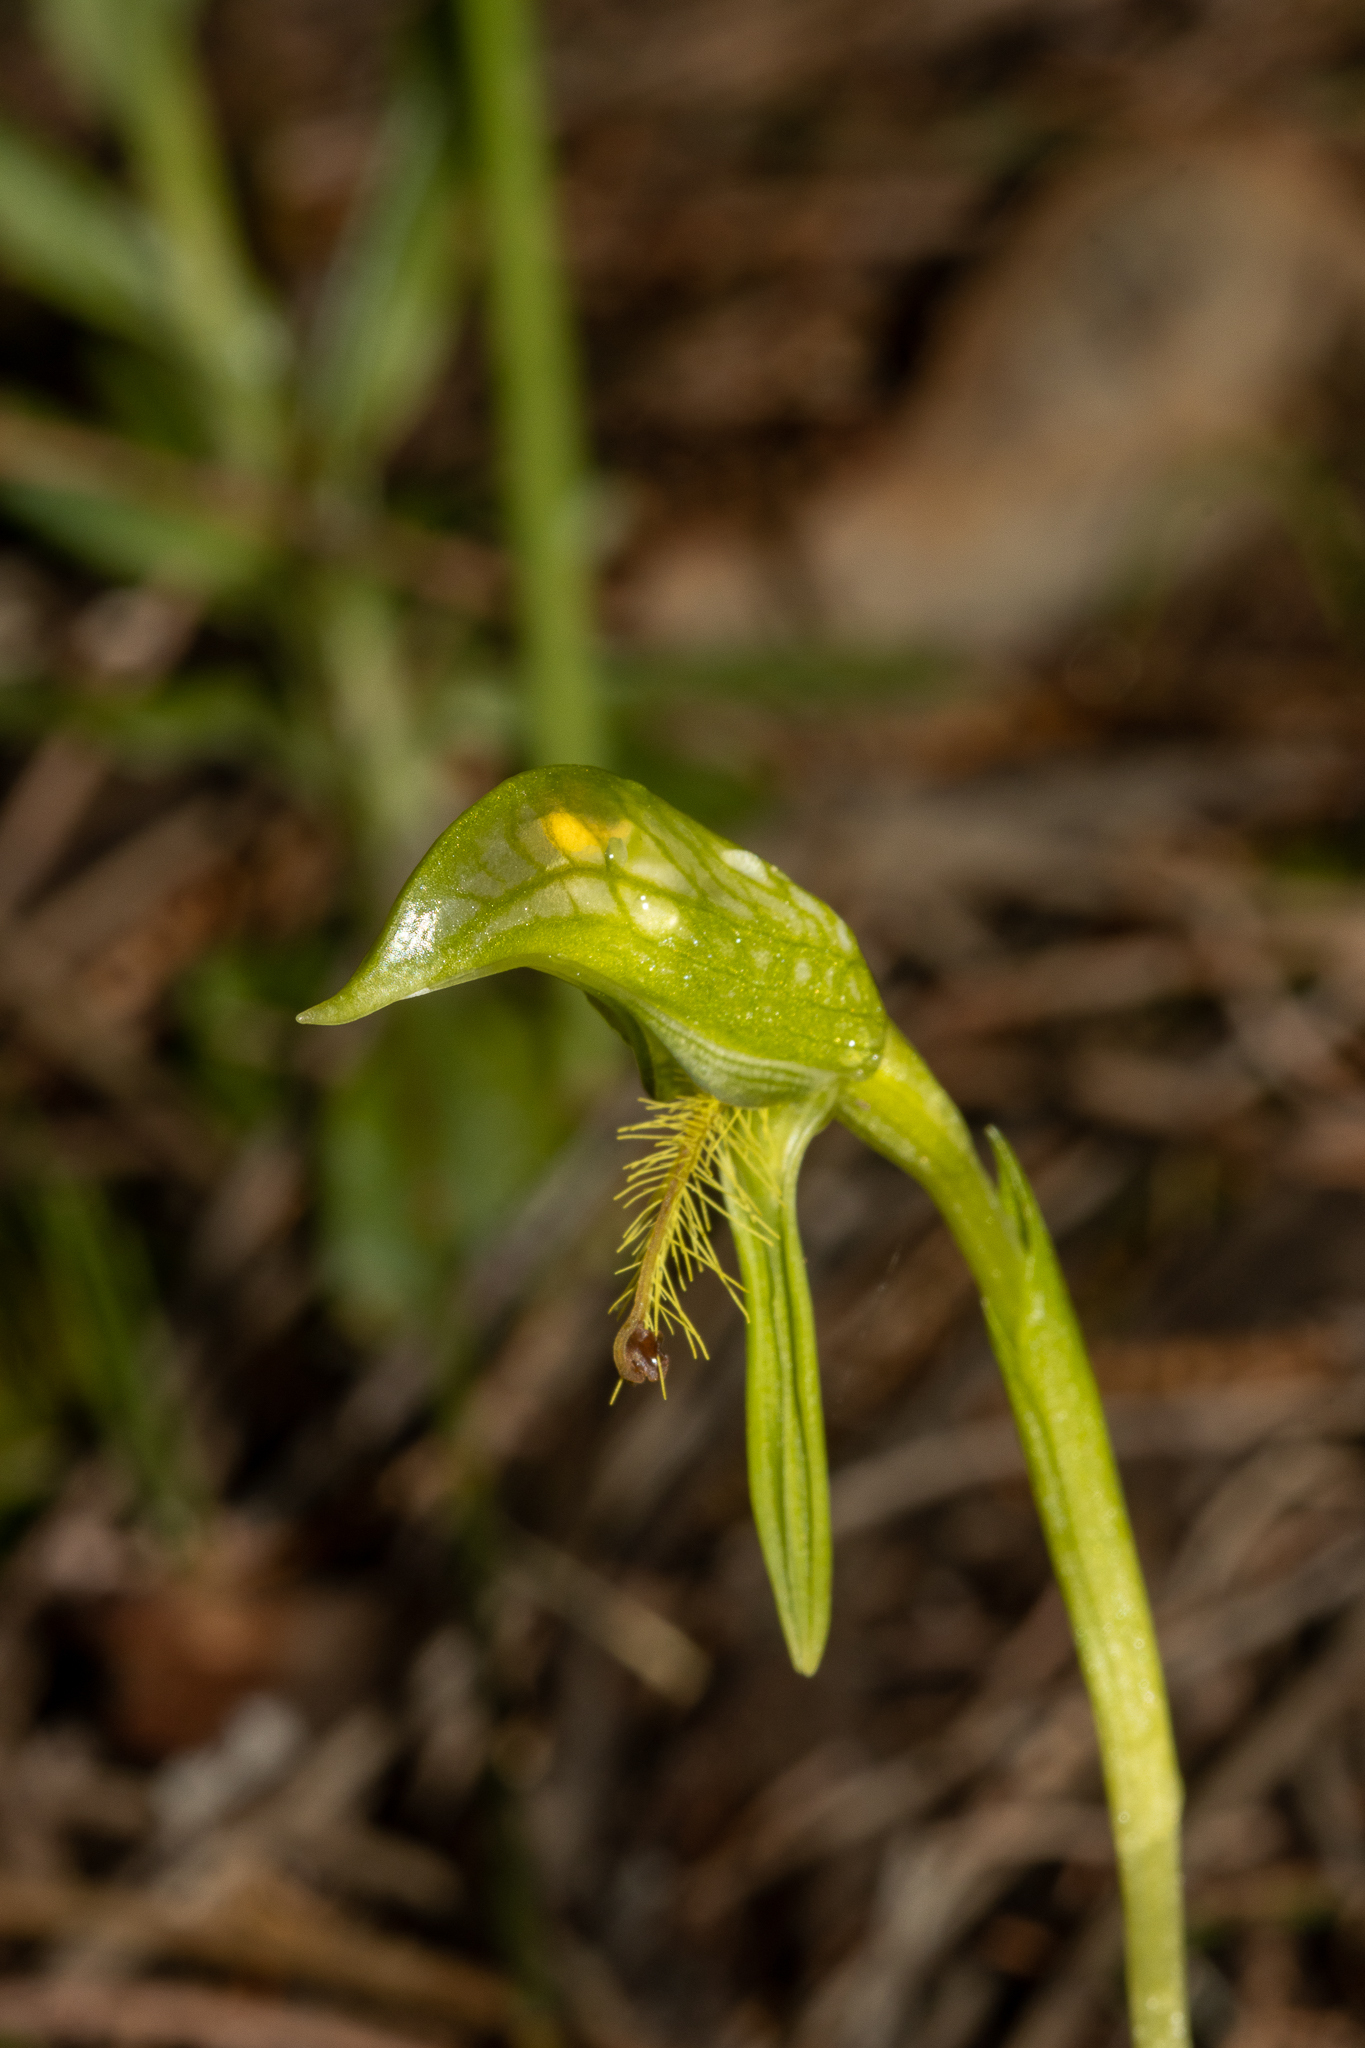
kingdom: Plantae
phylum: Tracheophyta
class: Liliopsida
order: Asparagales
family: Orchidaceae
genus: Pterostylis
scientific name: Pterostylis foliacea
